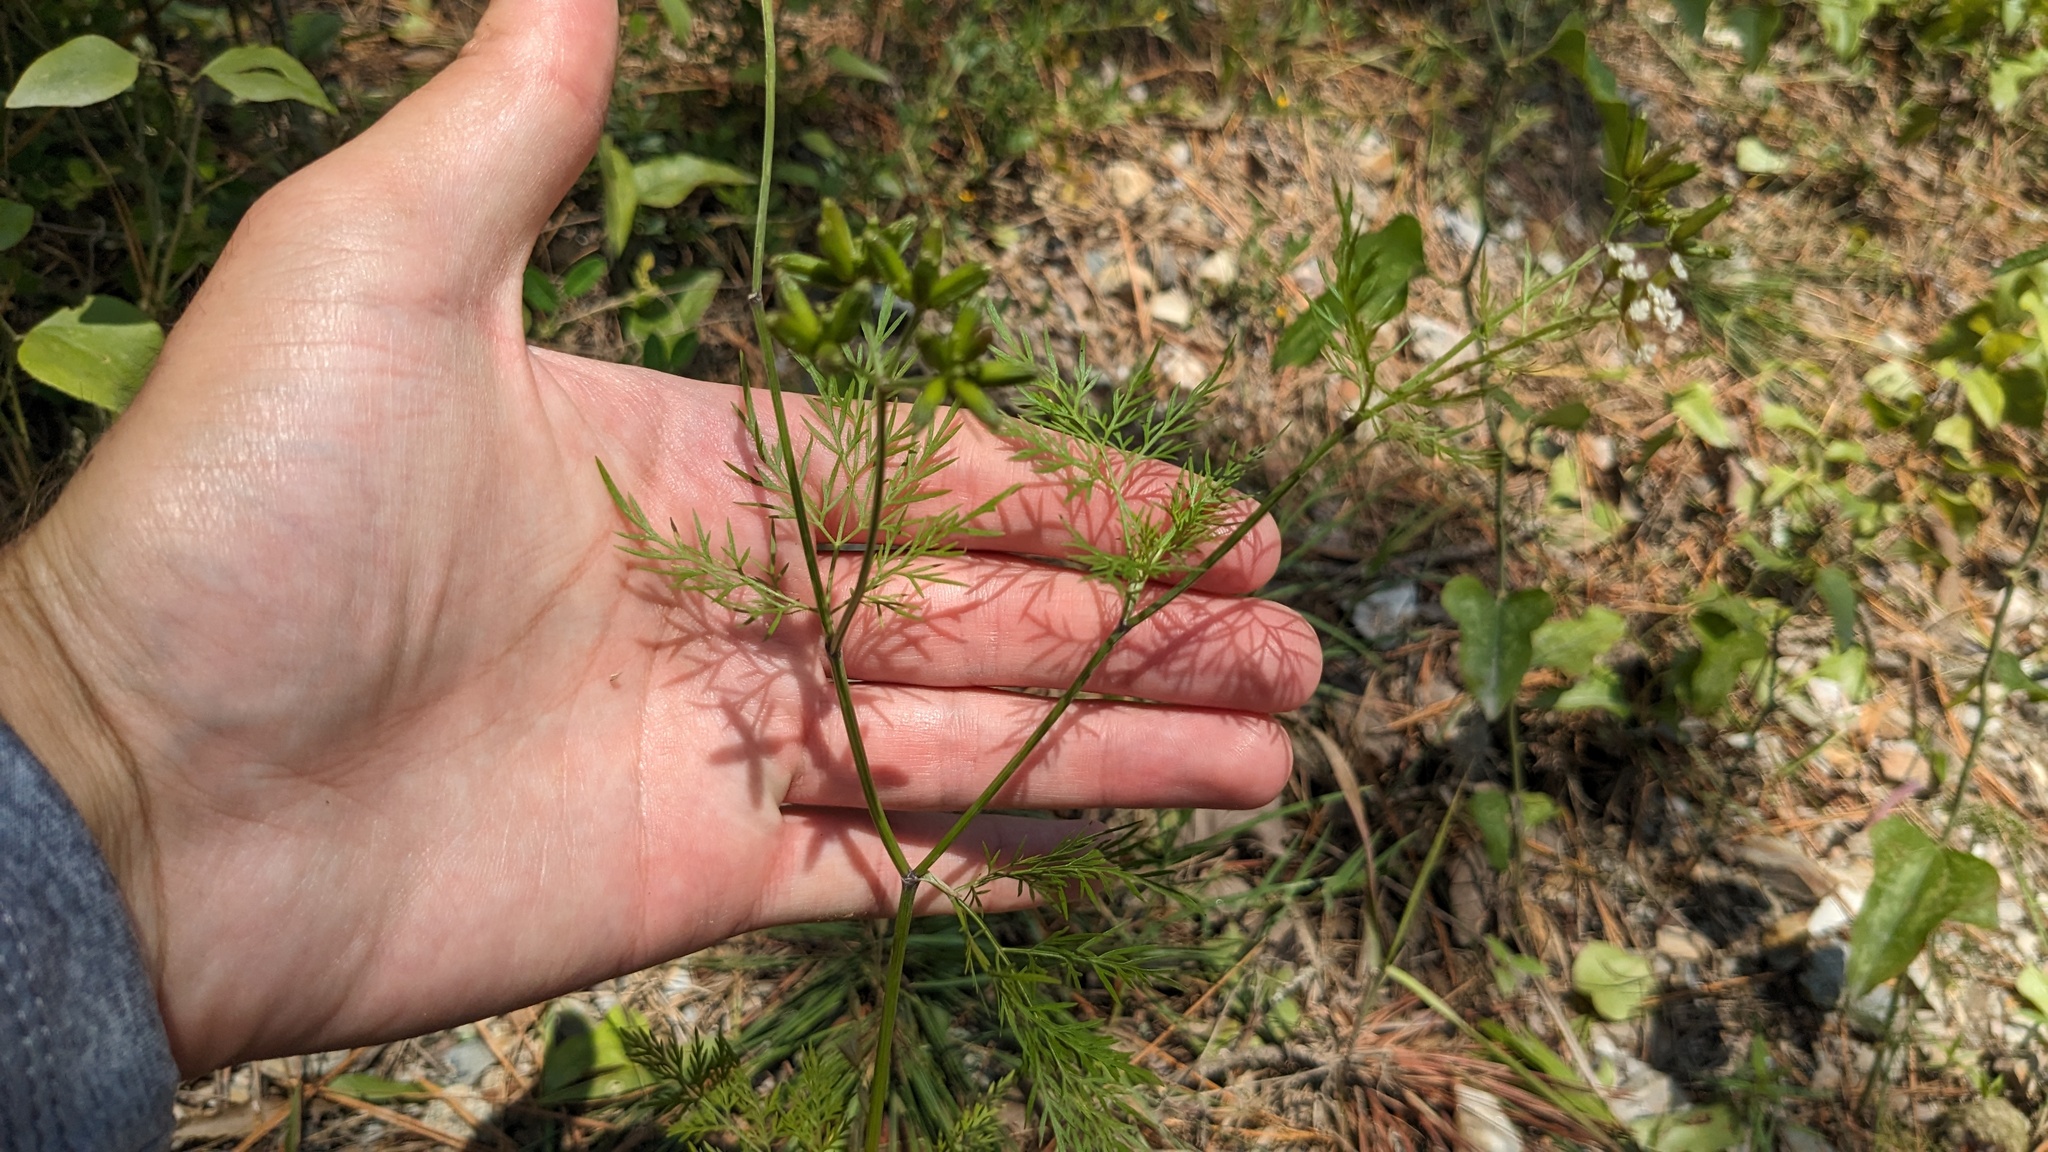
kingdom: Plantae
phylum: Tracheophyta
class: Magnoliopsida
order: Apiales
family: Apiaceae
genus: Trepocarpus
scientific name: Trepocarpus aethusae
